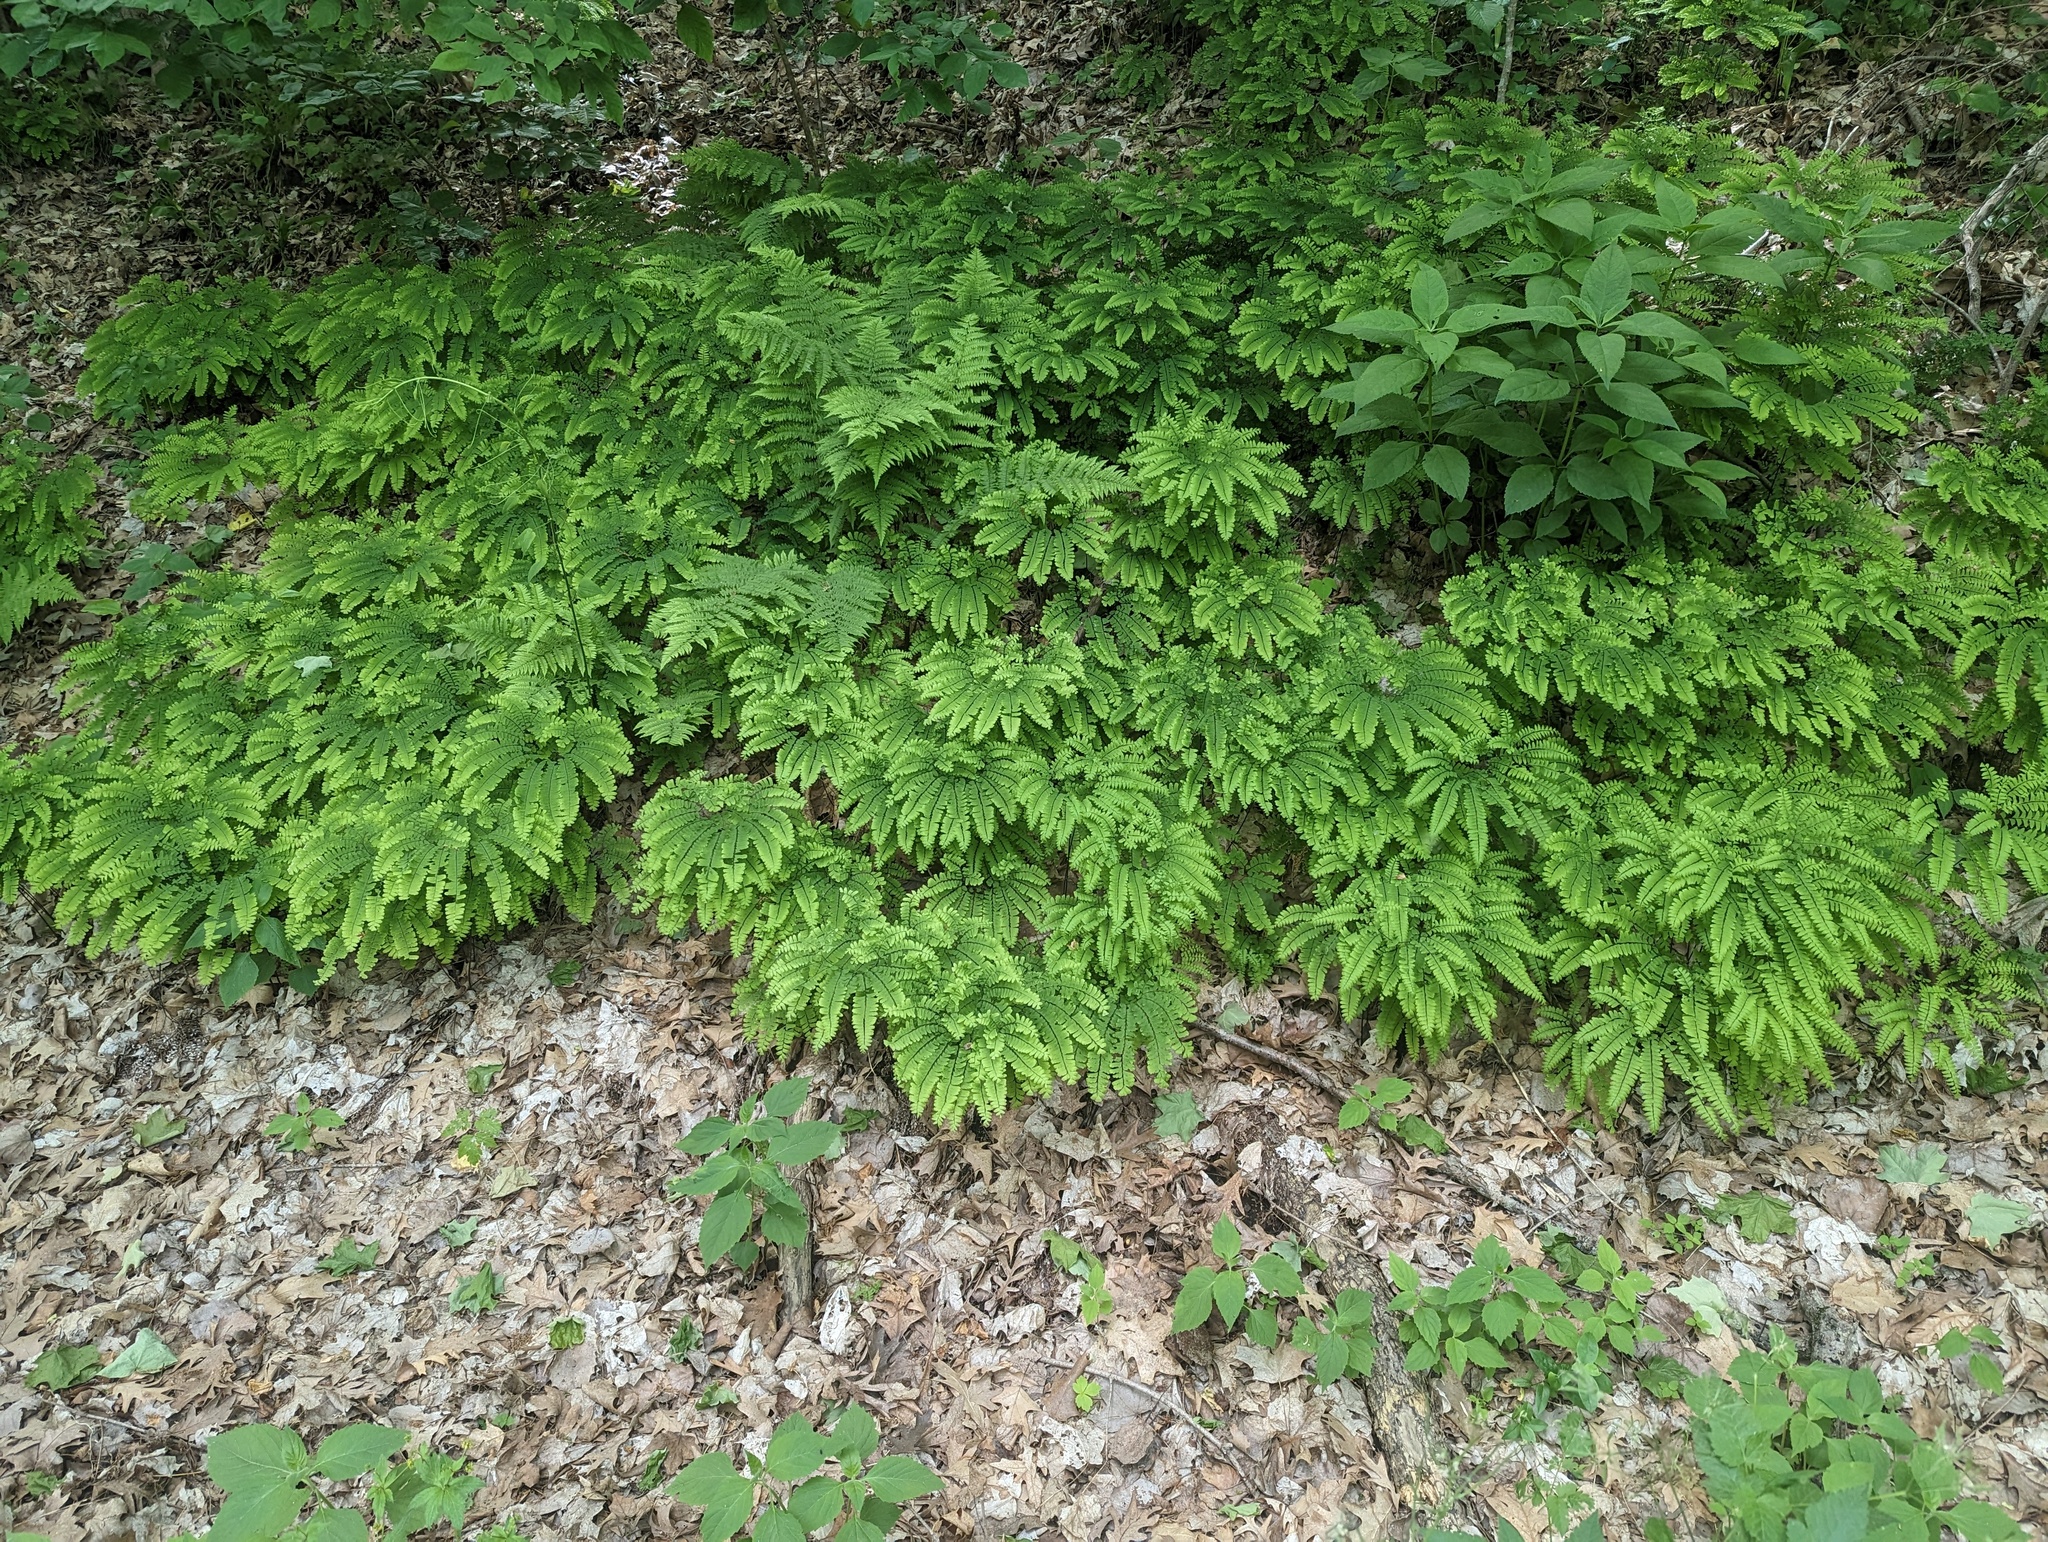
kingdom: Plantae
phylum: Tracheophyta
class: Polypodiopsida
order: Polypodiales
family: Pteridaceae
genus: Adiantum
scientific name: Adiantum pedatum
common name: Five-finger fern
